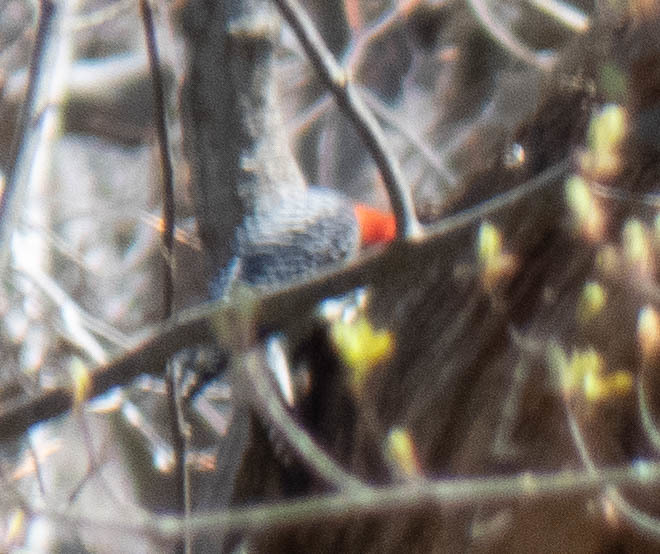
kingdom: Animalia
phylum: Chordata
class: Aves
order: Piciformes
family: Picidae
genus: Melanerpes
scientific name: Melanerpes carolinus
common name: Red-bellied woodpecker
